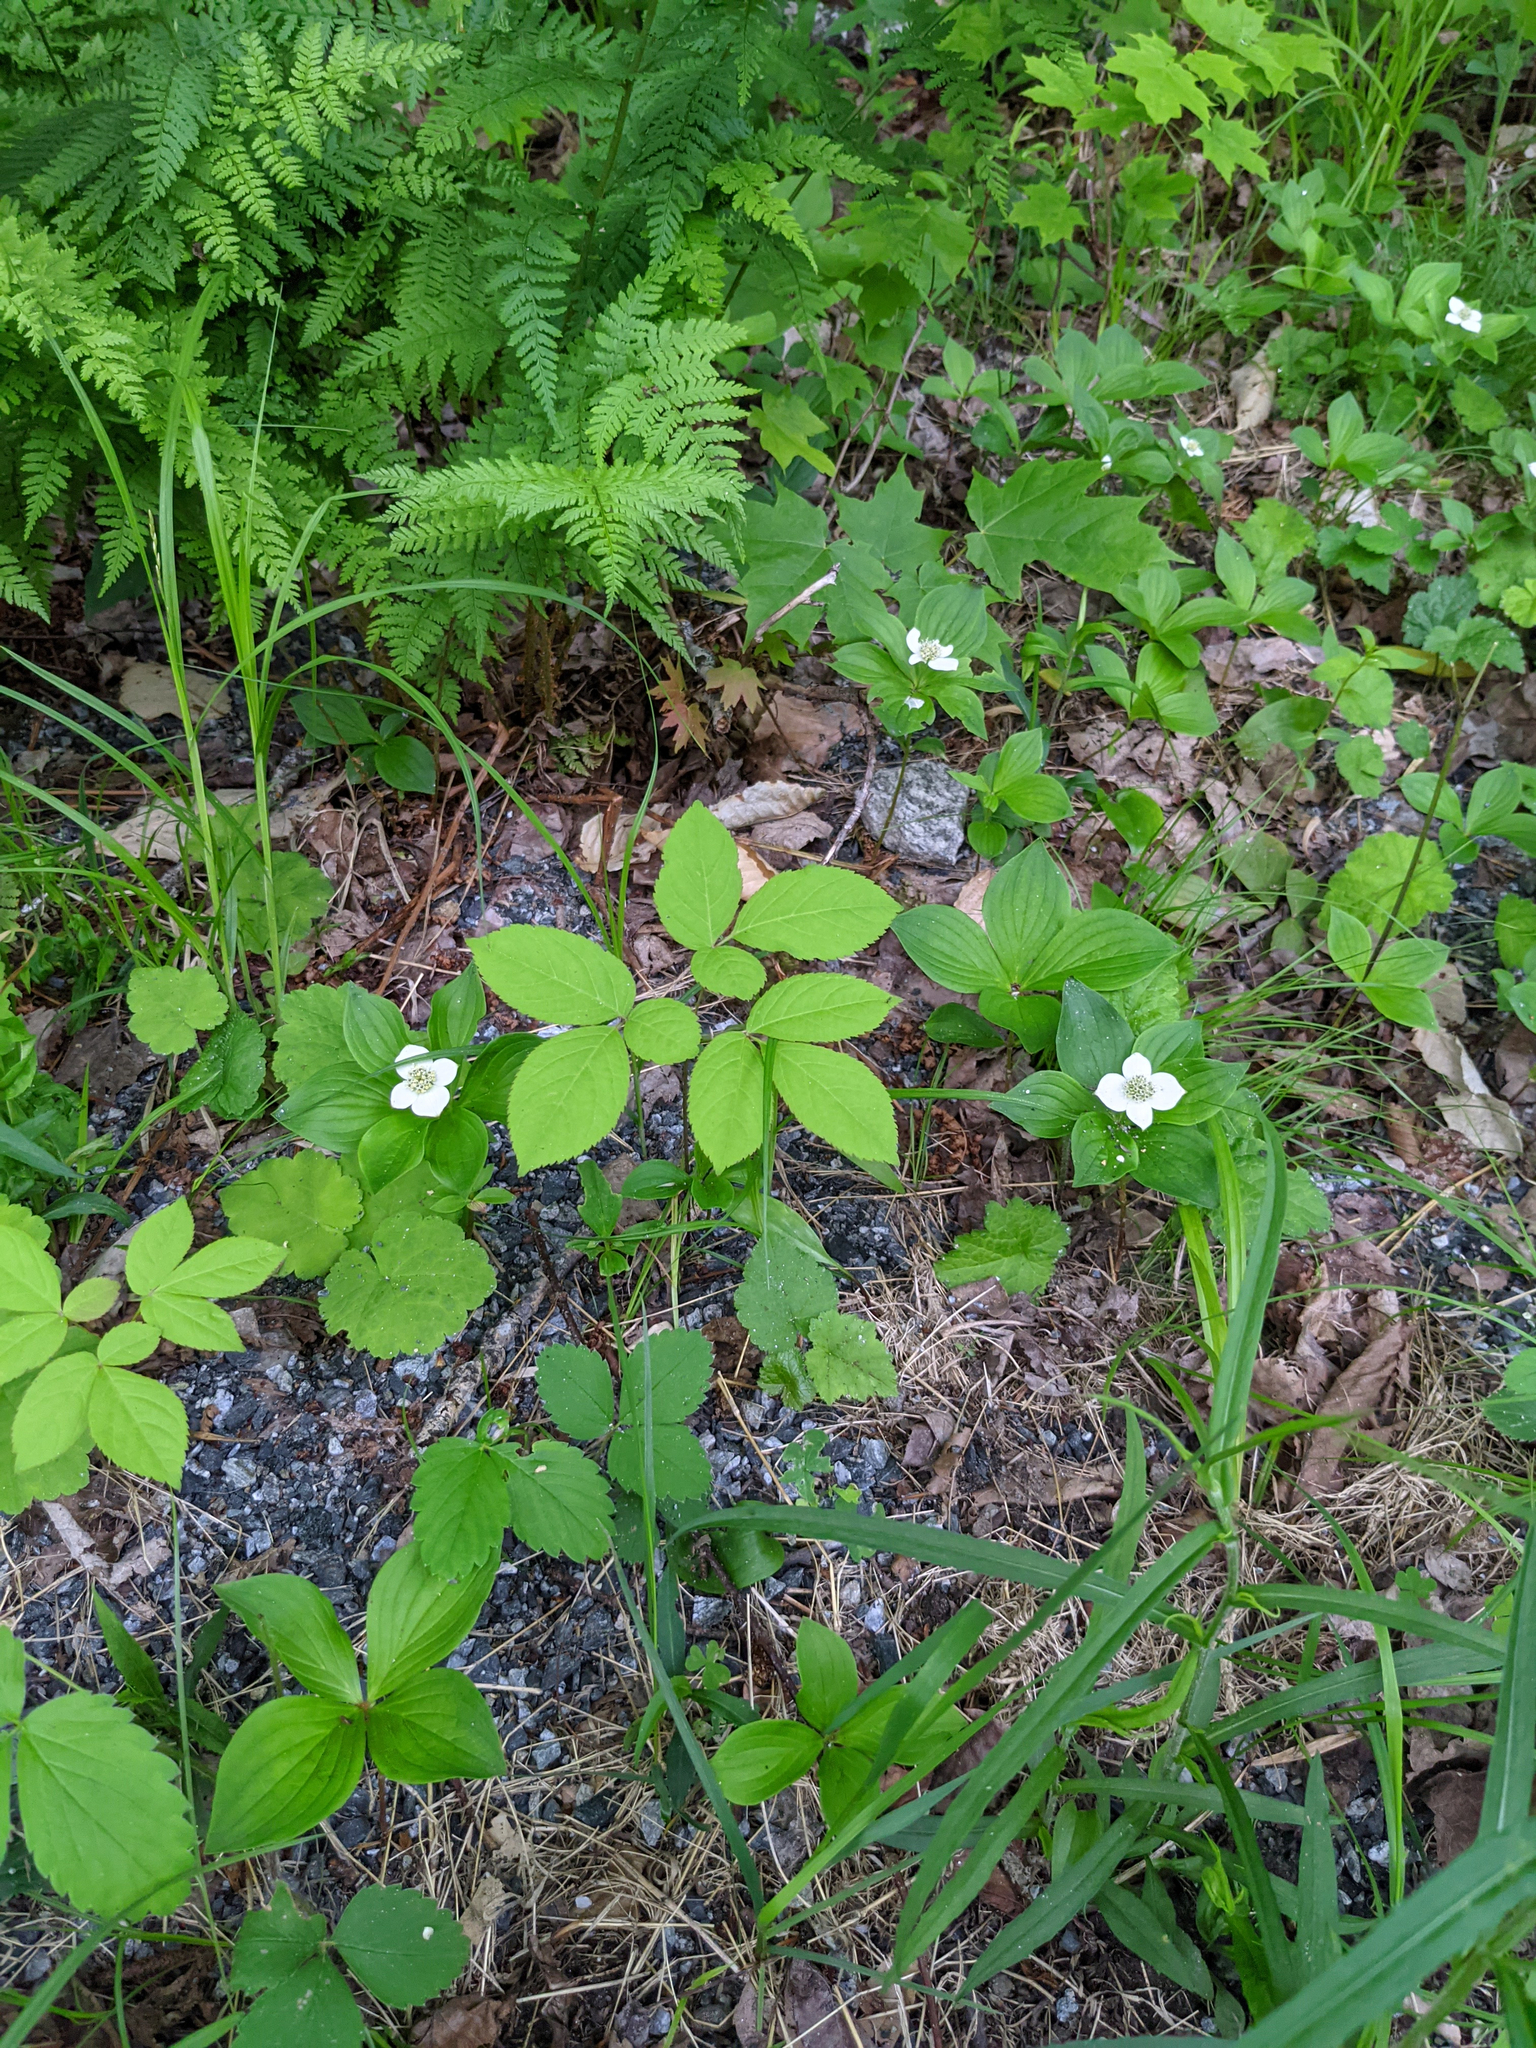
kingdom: Plantae
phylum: Tracheophyta
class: Magnoliopsida
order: Apiales
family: Araliaceae
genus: Aralia
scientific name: Aralia nudicaulis
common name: Wild sarsaparilla
